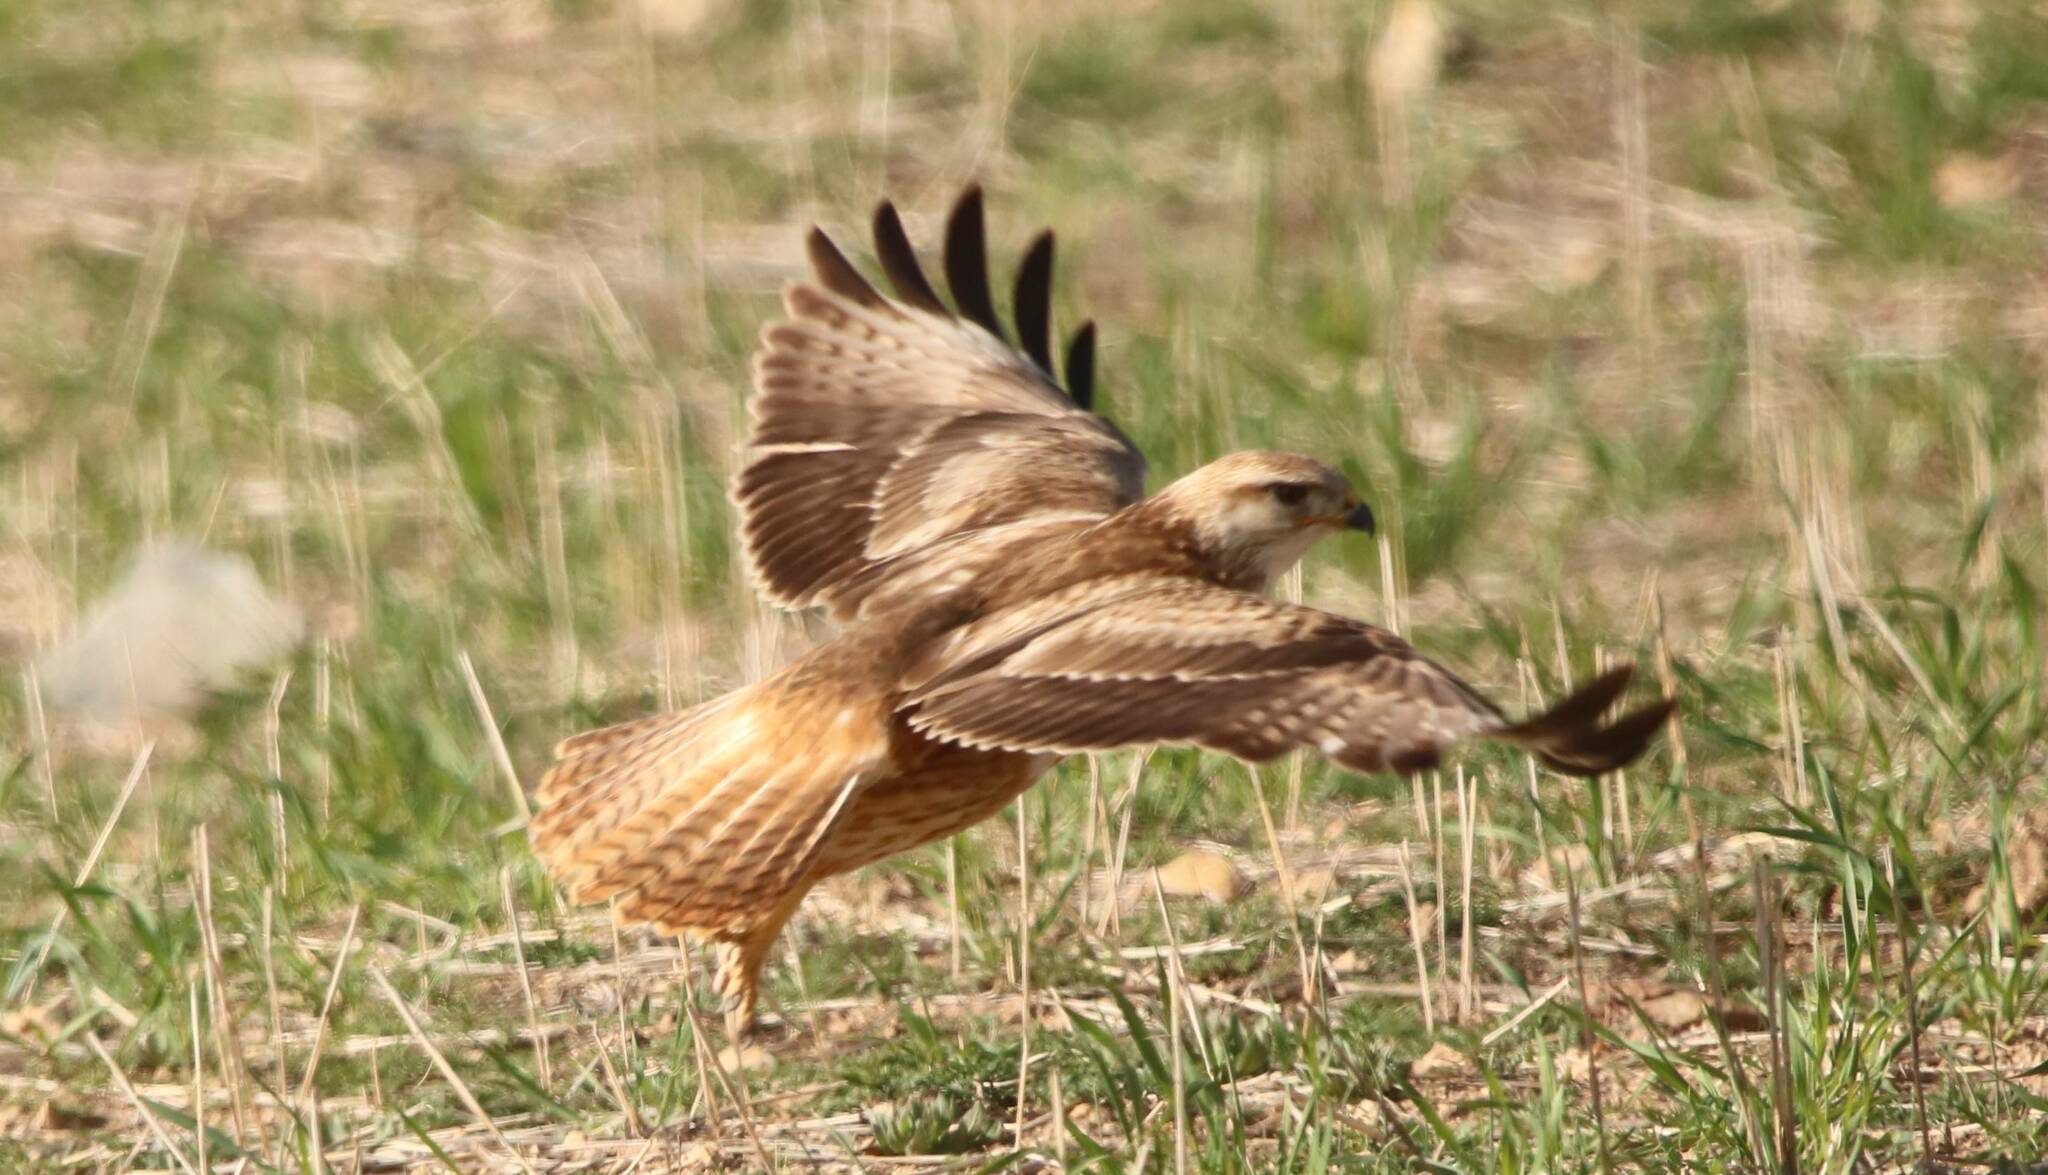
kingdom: Animalia
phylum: Chordata
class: Aves
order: Accipitriformes
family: Accipitridae
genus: Buteo
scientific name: Buteo rufinus
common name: Long-legged buzzard
